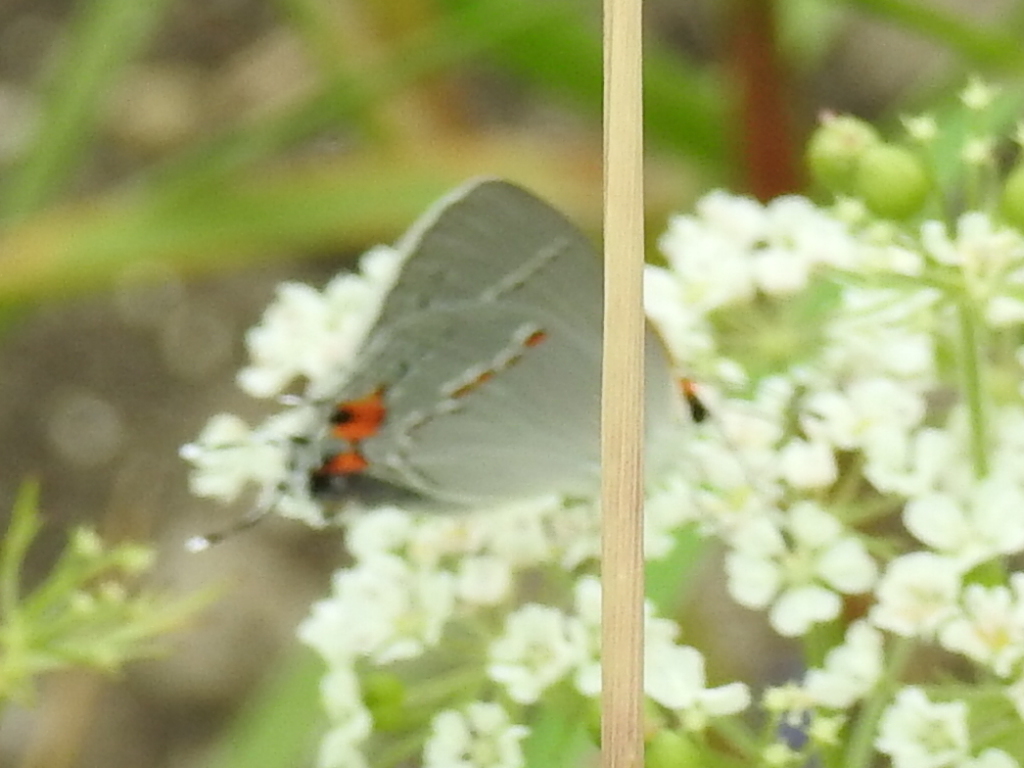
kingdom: Animalia
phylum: Arthropoda
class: Insecta
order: Lepidoptera
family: Lycaenidae
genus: Strymon
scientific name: Strymon melinus
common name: Gray hairstreak
